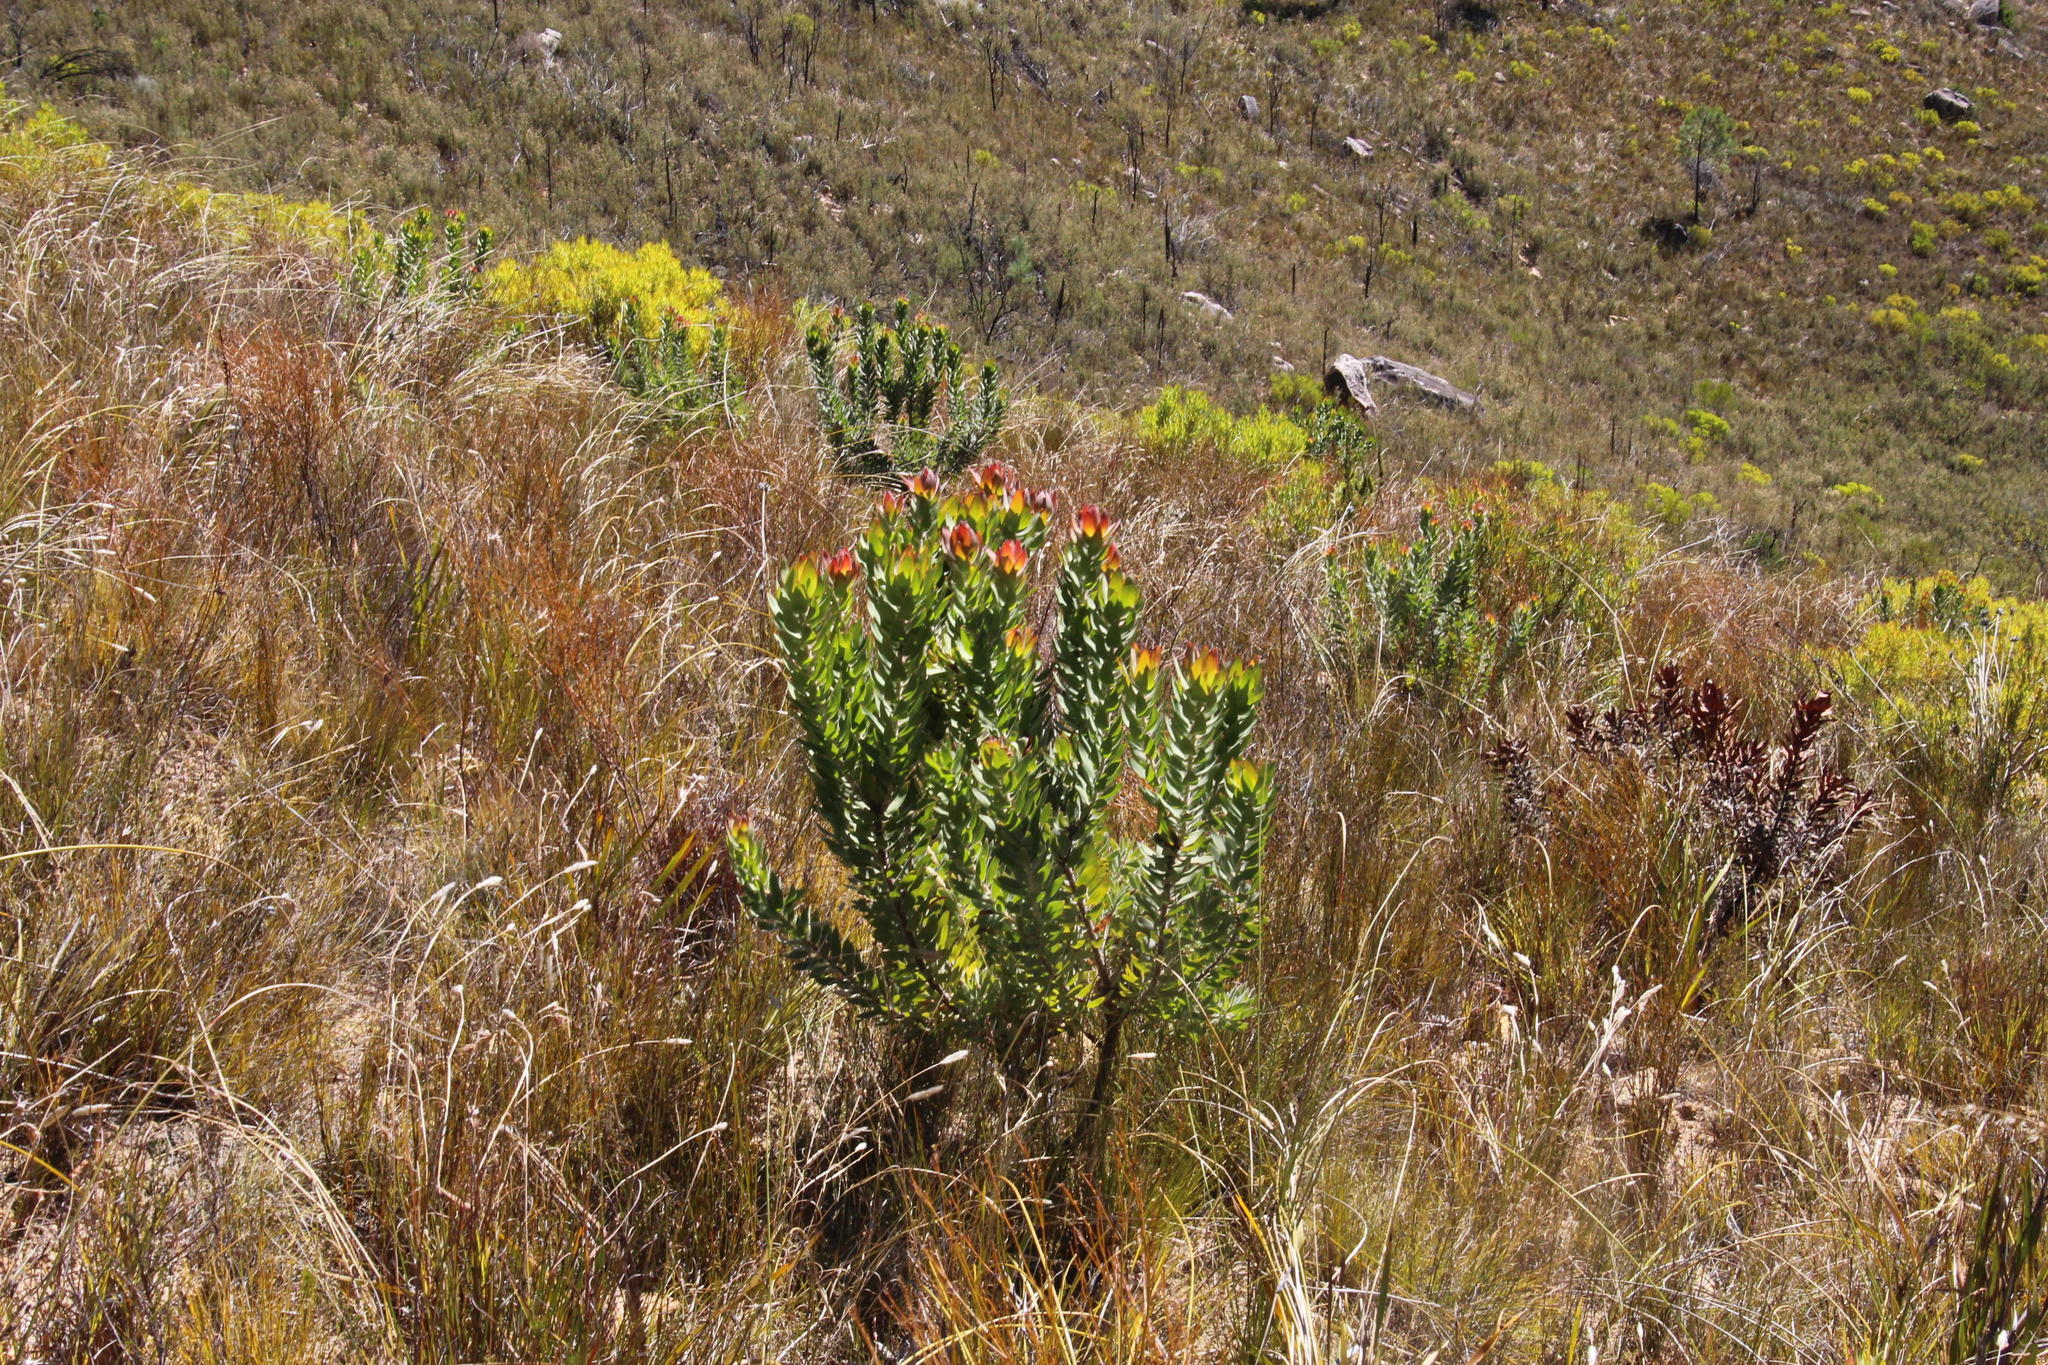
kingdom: Plantae
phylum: Tracheophyta
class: Magnoliopsida
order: Proteales
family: Proteaceae
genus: Leucadendron
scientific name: Leucadendron daphnoides
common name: Du toit's kloof conebush
